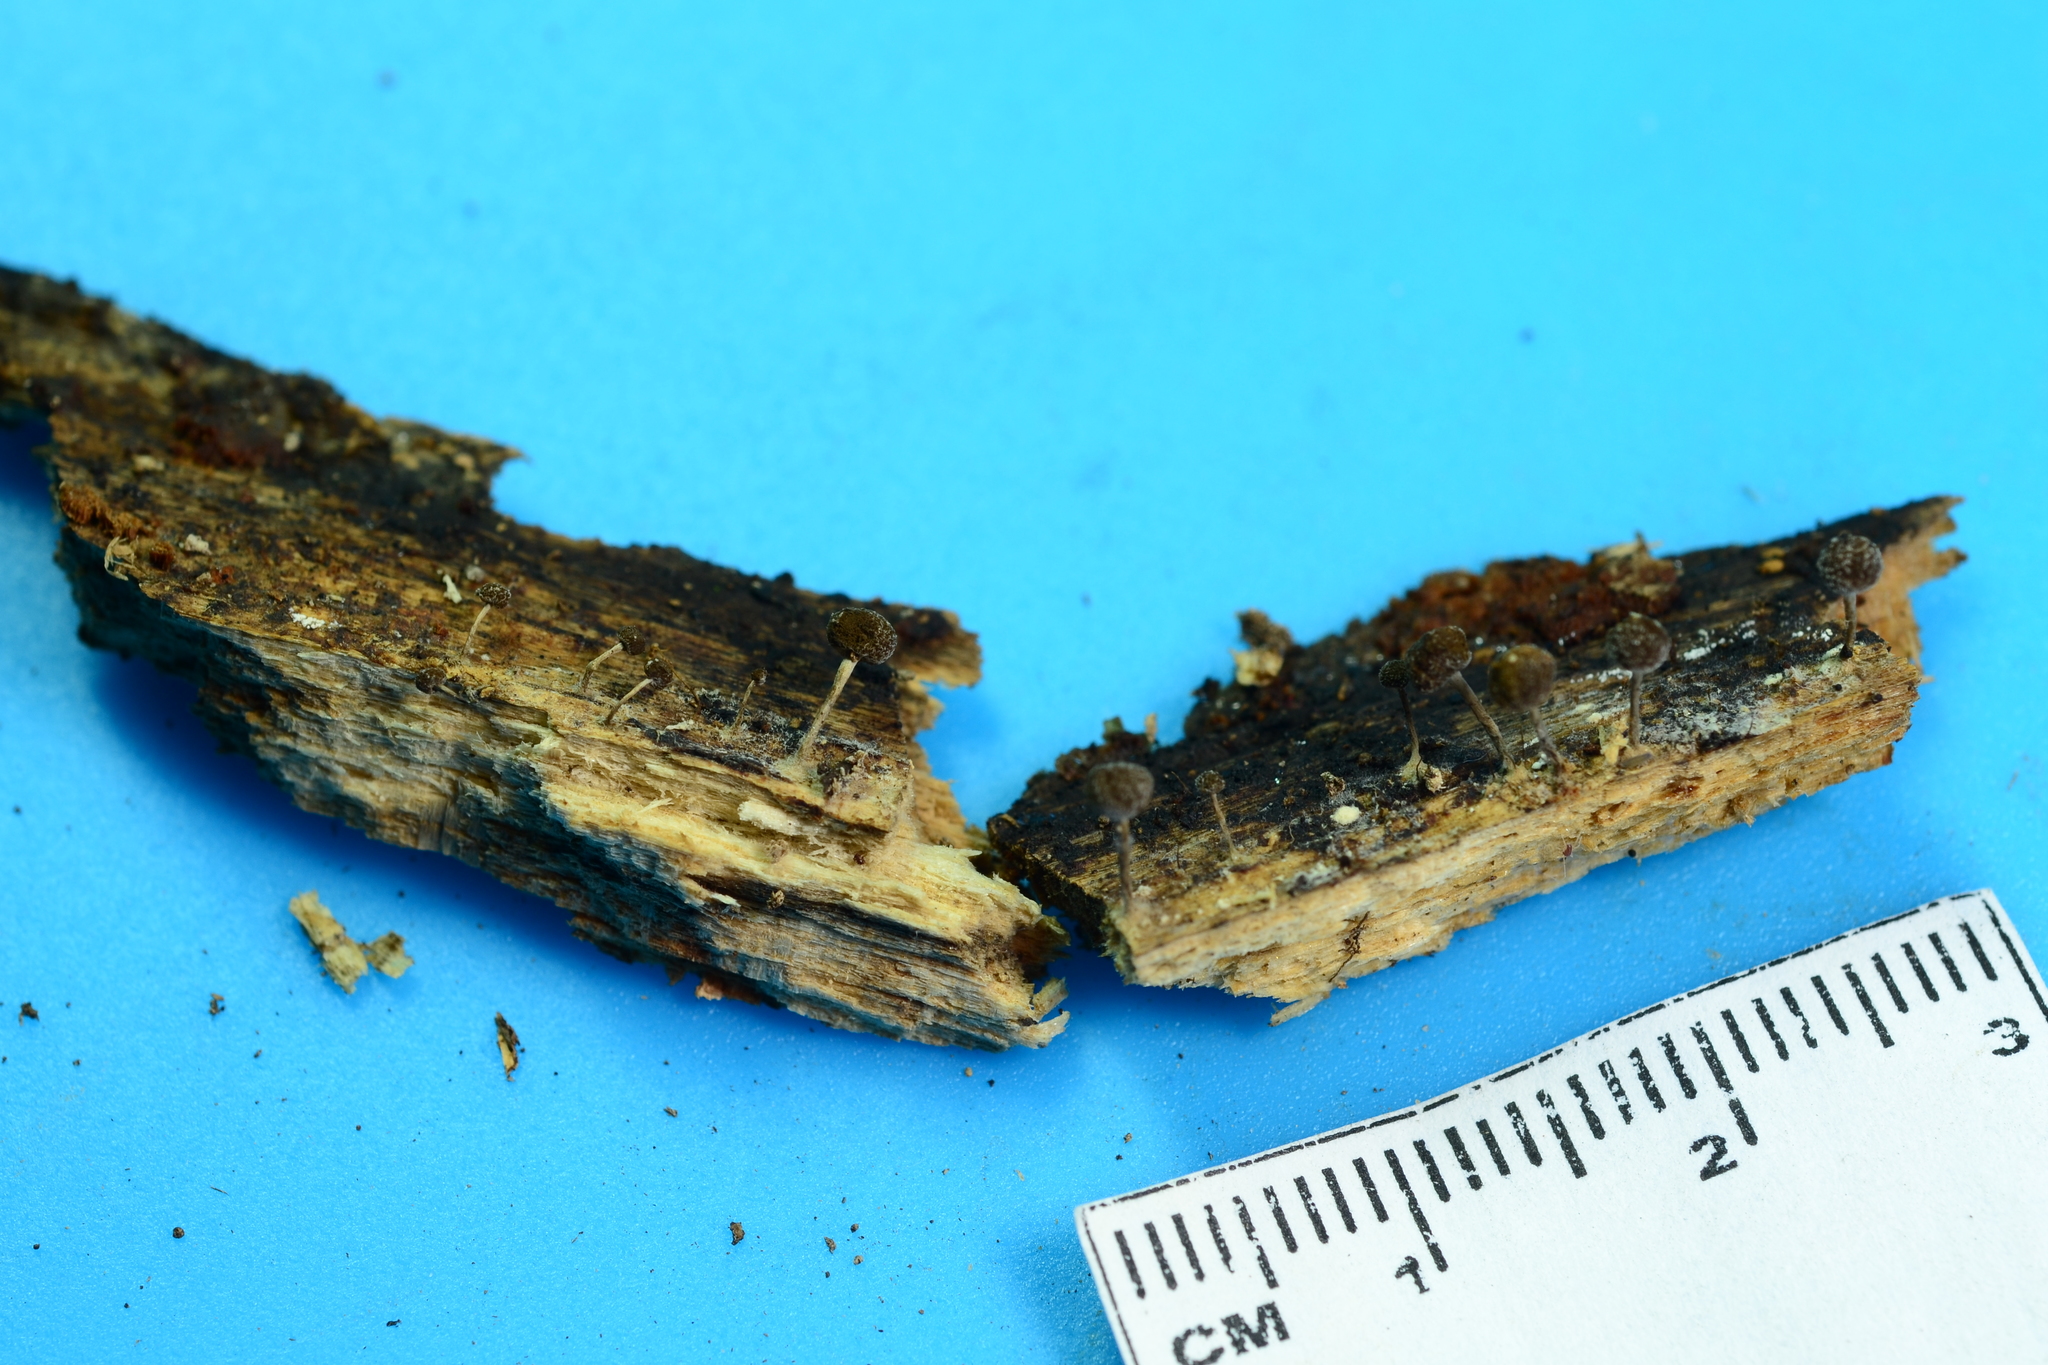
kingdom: Fungi
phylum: Basidiomycota
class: Atractiellomycetes
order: Atractiellales
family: Phleogenaceae
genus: Phleogena
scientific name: Phleogena faginea
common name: Fenugreek stalkball
